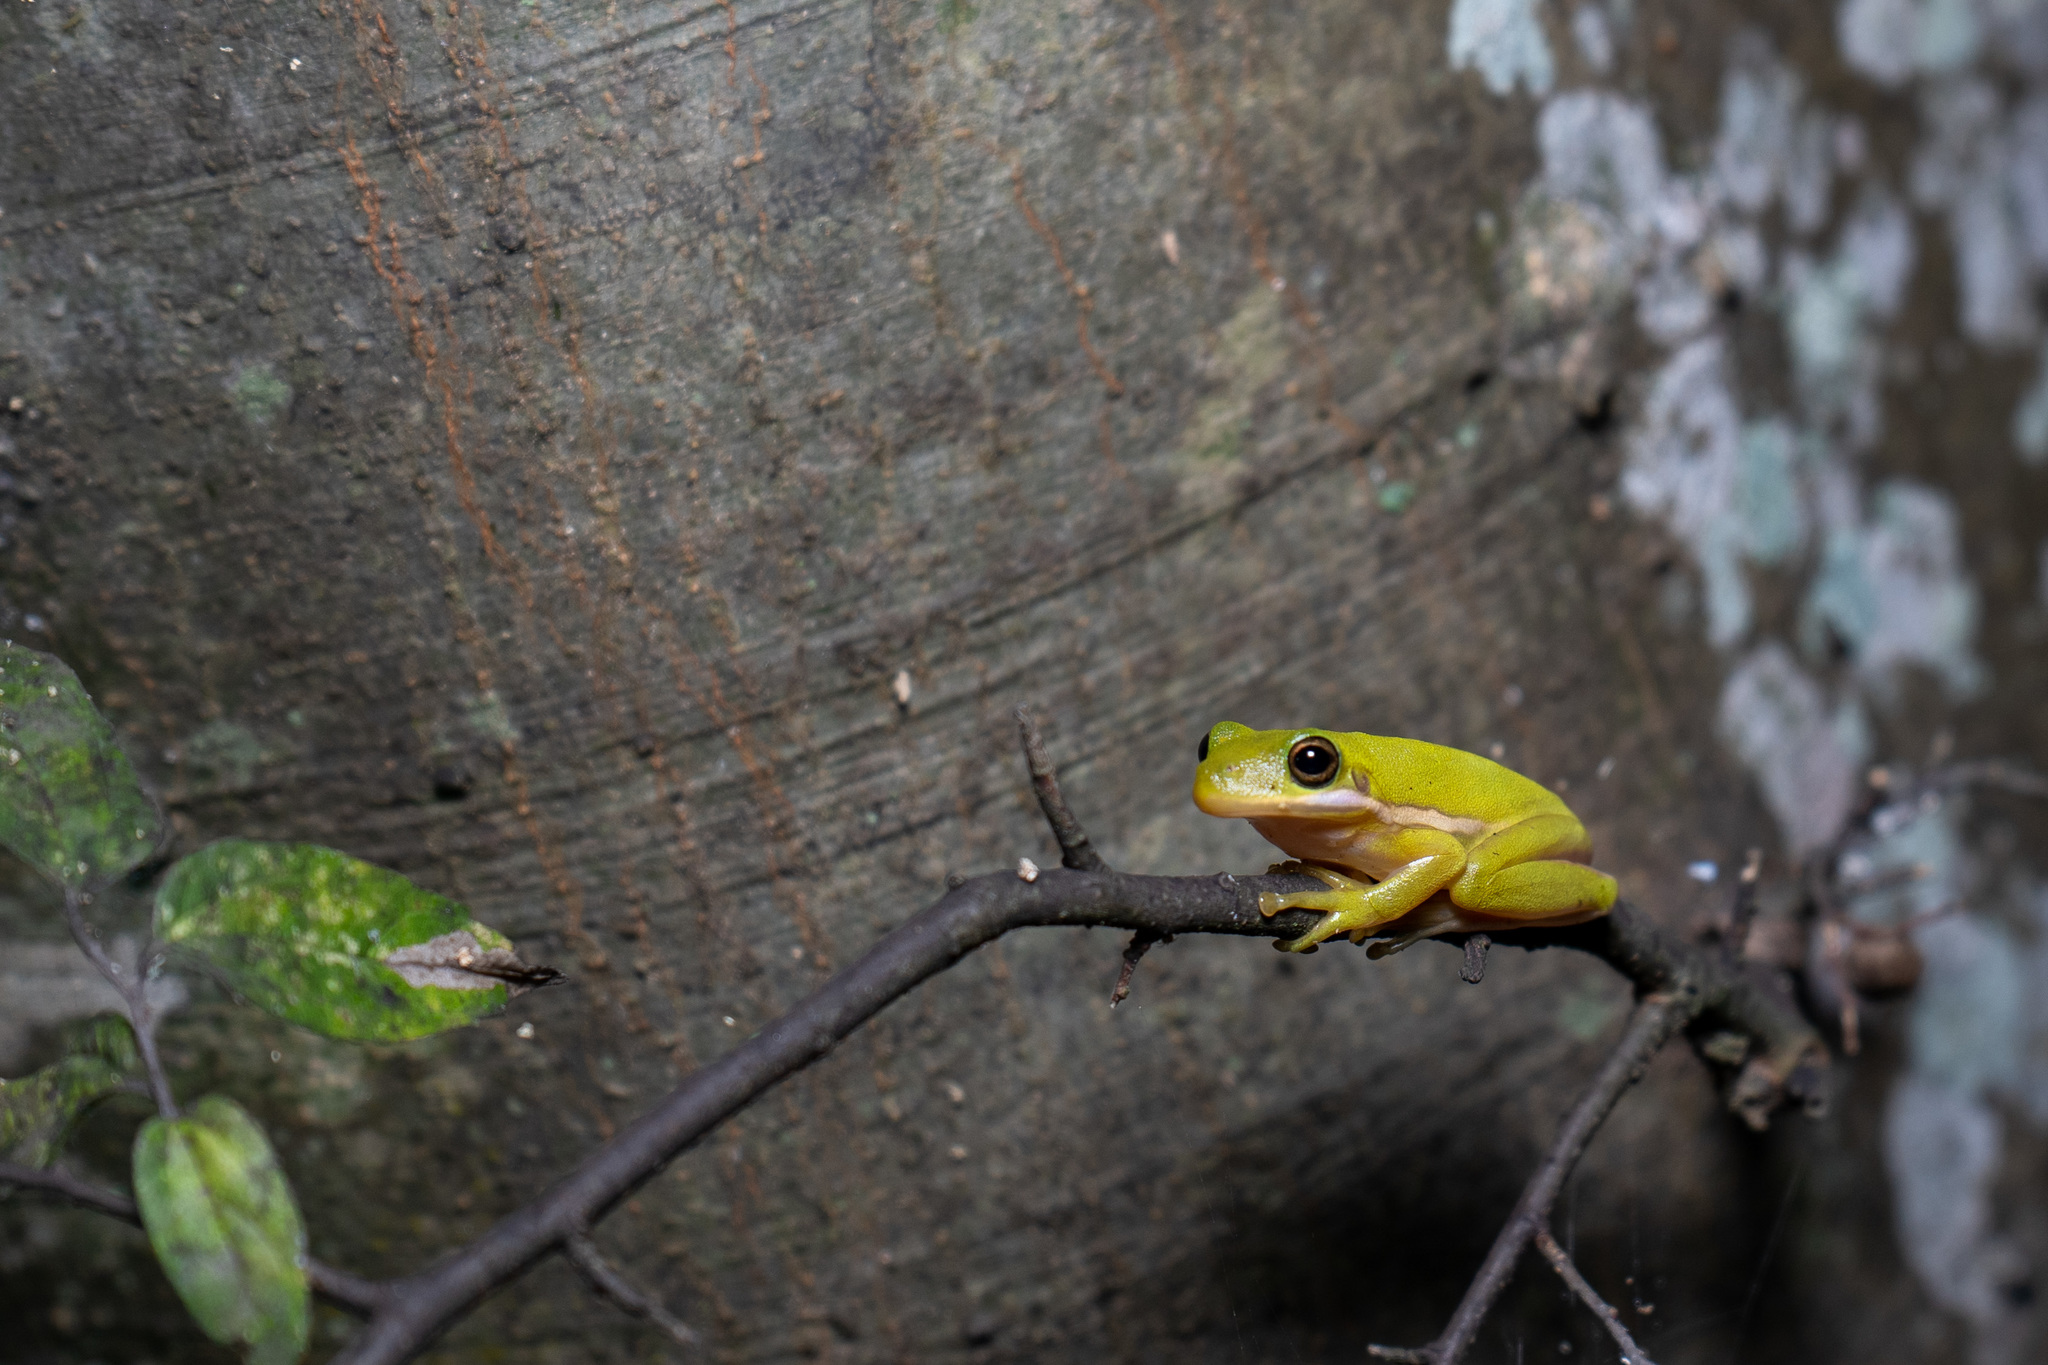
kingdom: Animalia
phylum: Chordata
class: Amphibia
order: Anura
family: Hylidae
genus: Dryophytes
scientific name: Dryophytes cinereus
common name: Green treefrog
